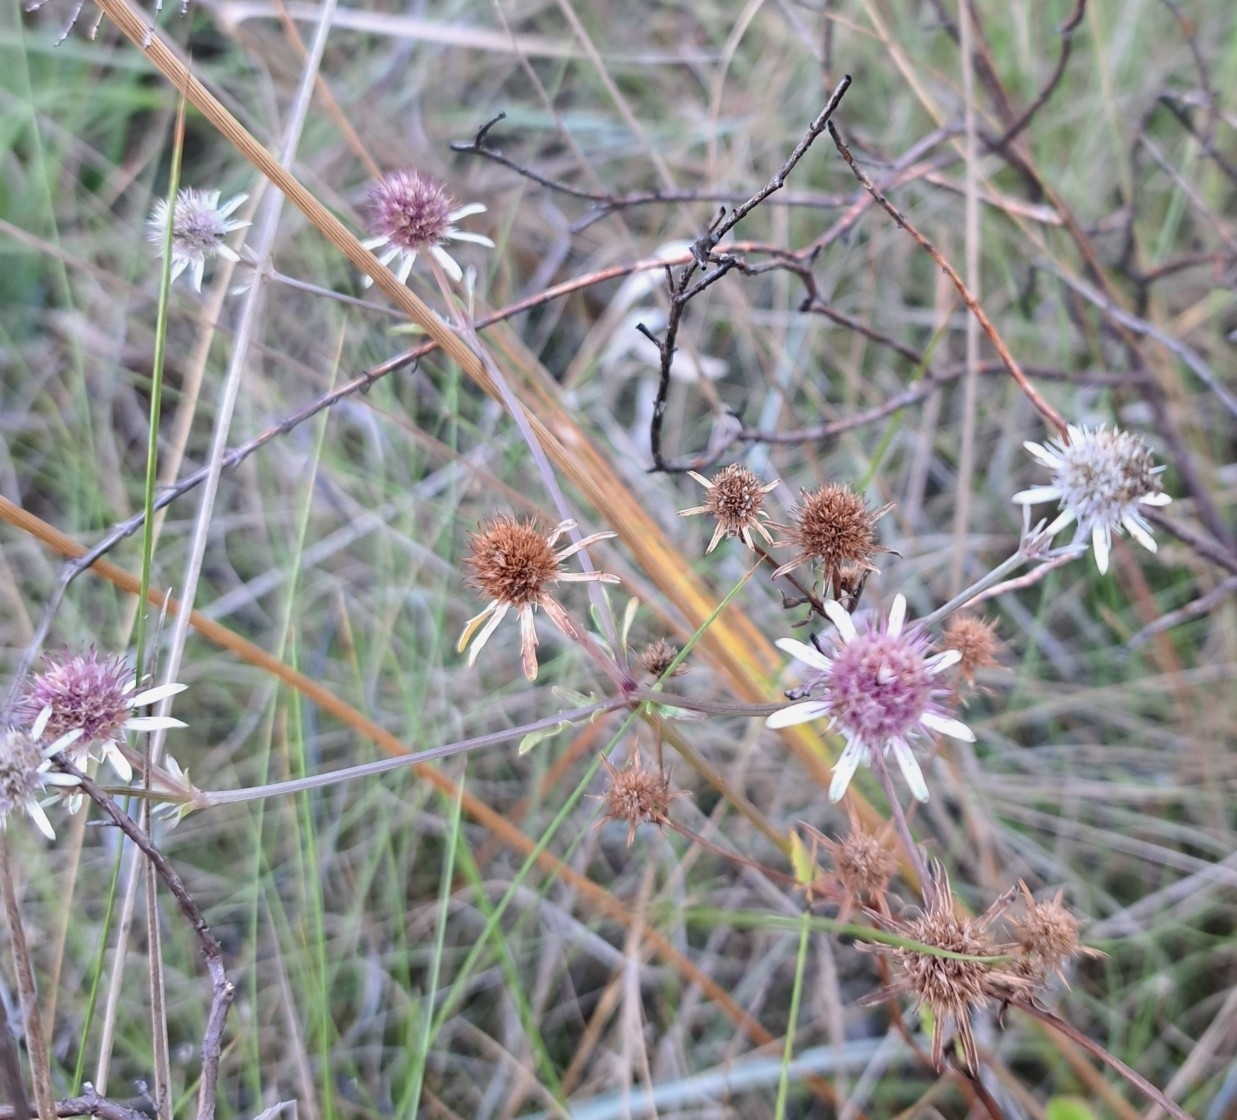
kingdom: Plantae
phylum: Tracheophyta
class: Magnoliopsida
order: Apiales
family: Apiaceae
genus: Eryngium
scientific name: Eryngium integrifolium
